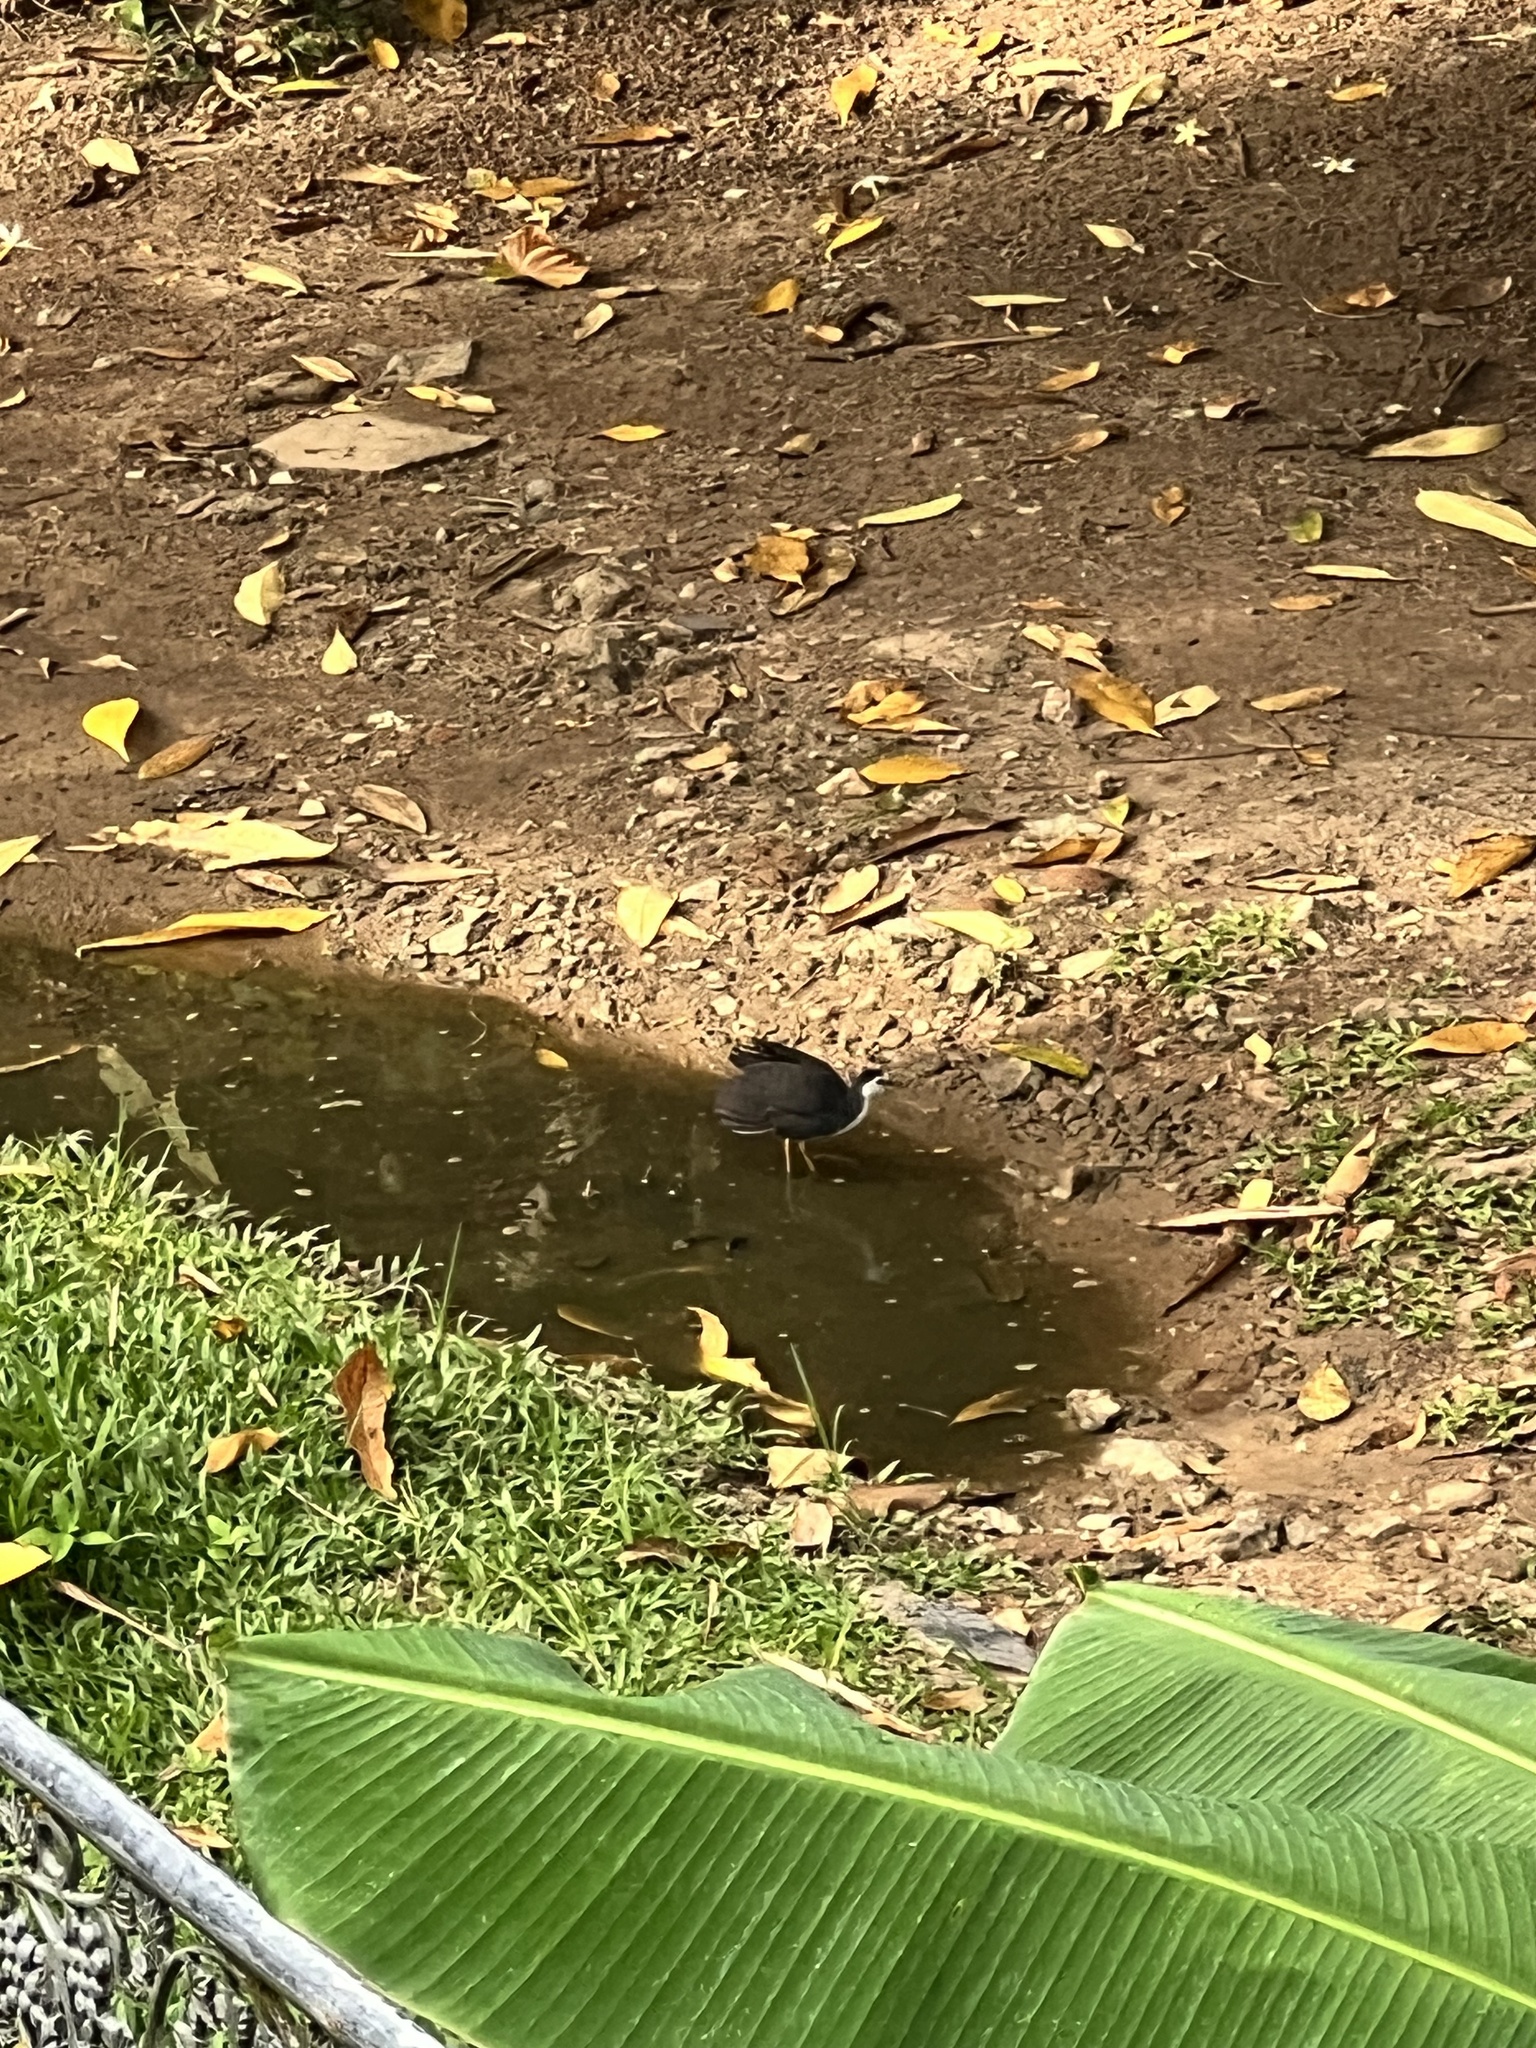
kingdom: Animalia
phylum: Chordata
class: Aves
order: Gruiformes
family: Rallidae
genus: Amaurornis
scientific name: Amaurornis phoenicurus
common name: White-breasted waterhen
